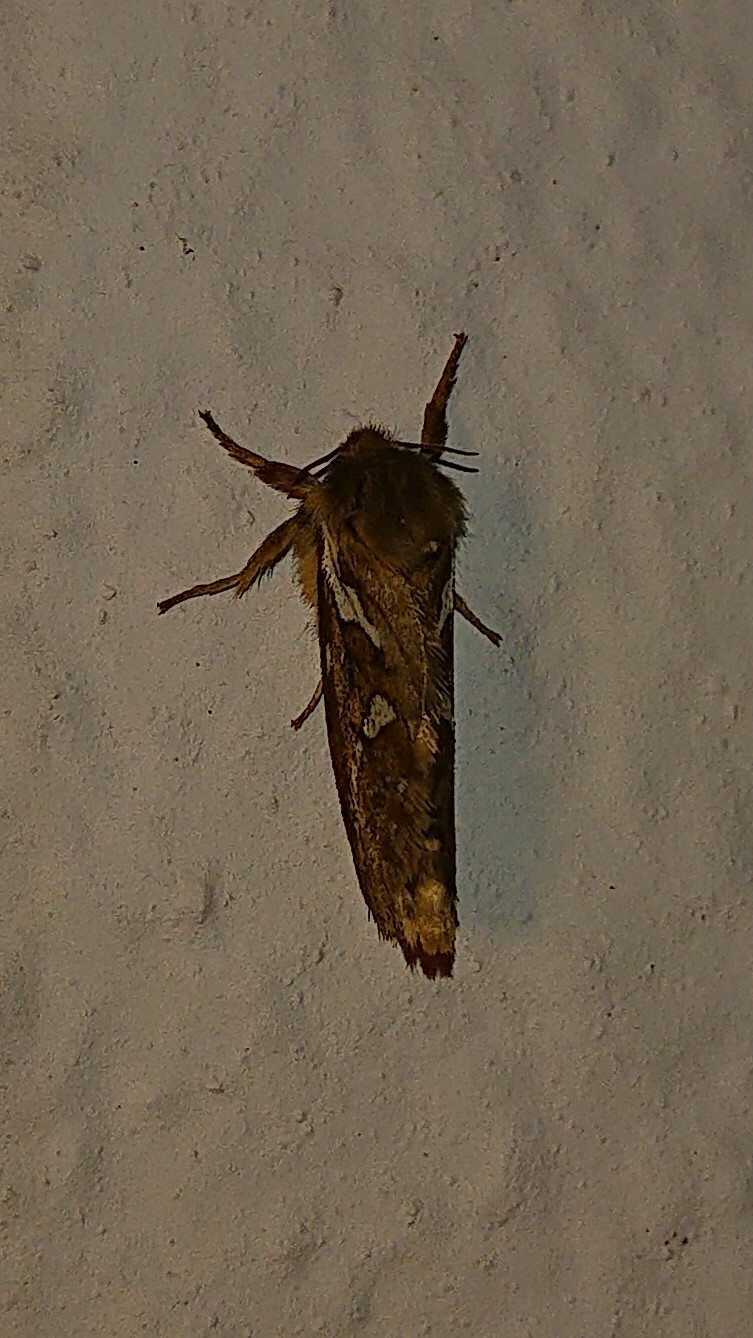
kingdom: Animalia
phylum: Arthropoda
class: Insecta
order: Lepidoptera
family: Hepialidae
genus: Korscheltellus
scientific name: Korscheltellus lupulina
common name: Common swift
